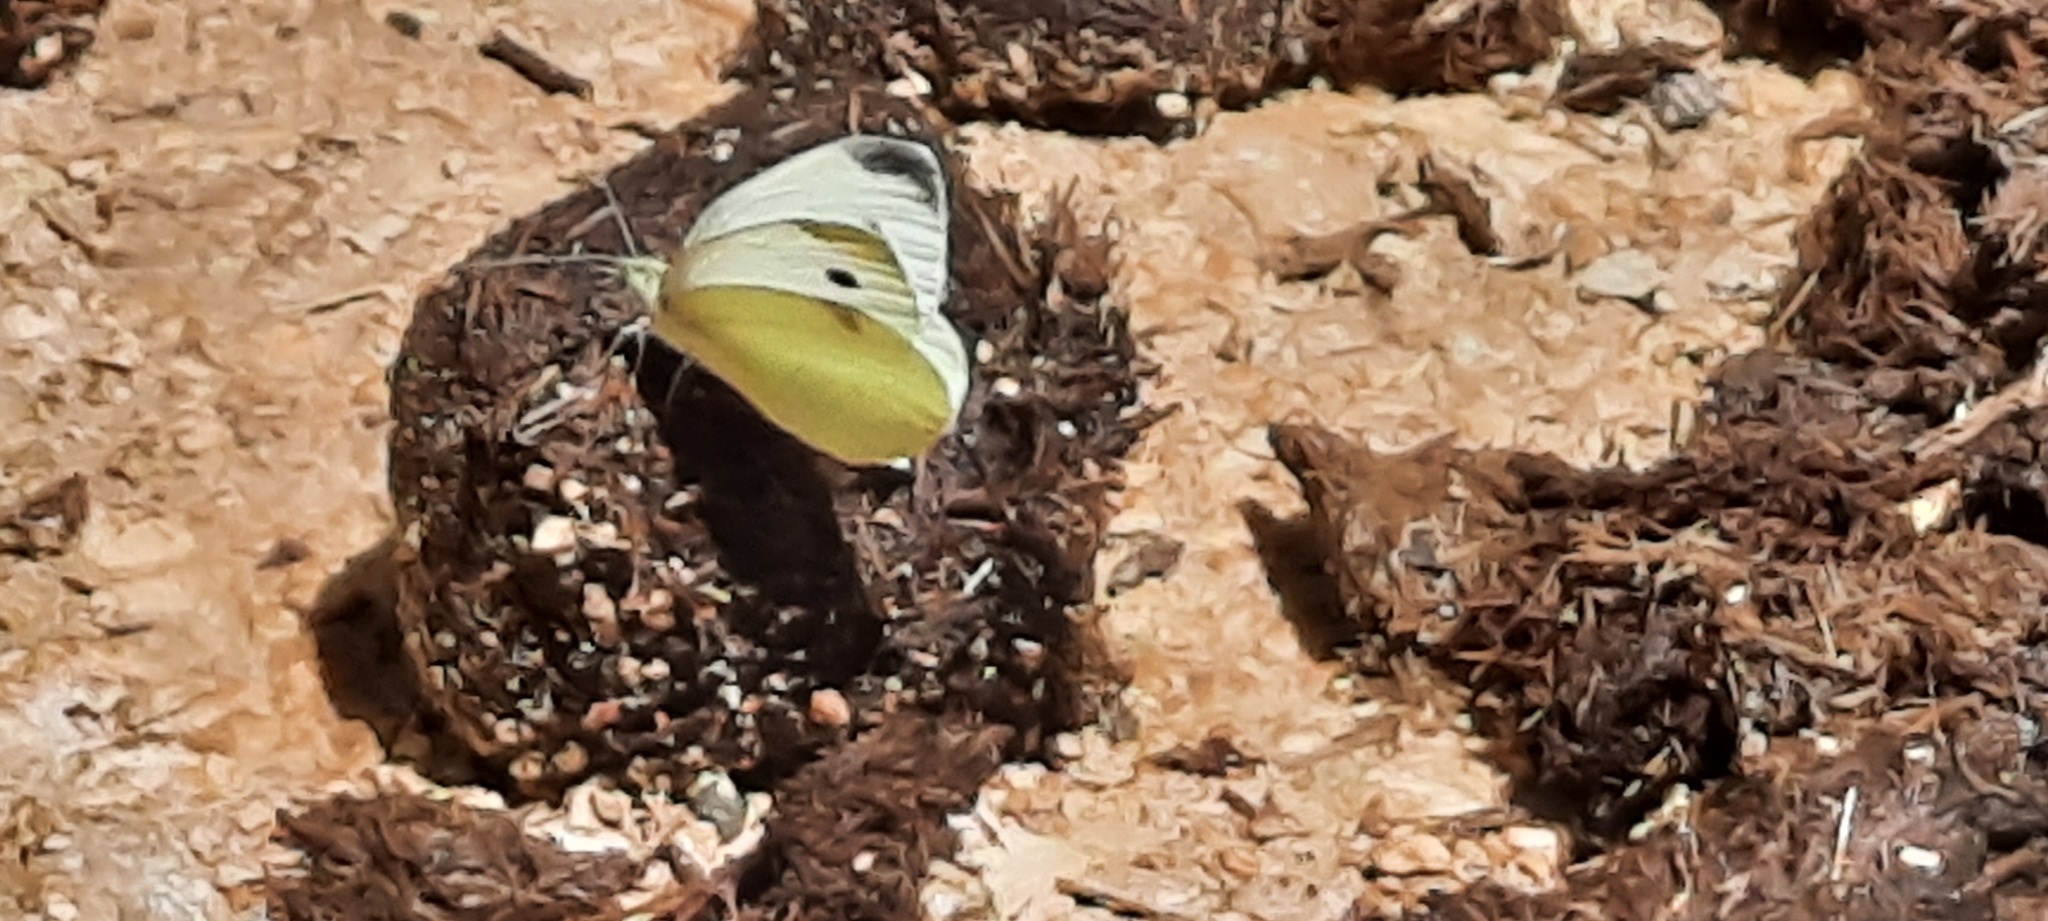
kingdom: Animalia
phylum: Arthropoda
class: Insecta
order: Lepidoptera
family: Pieridae
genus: Pieris
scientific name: Pieris rapae
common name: Small white
